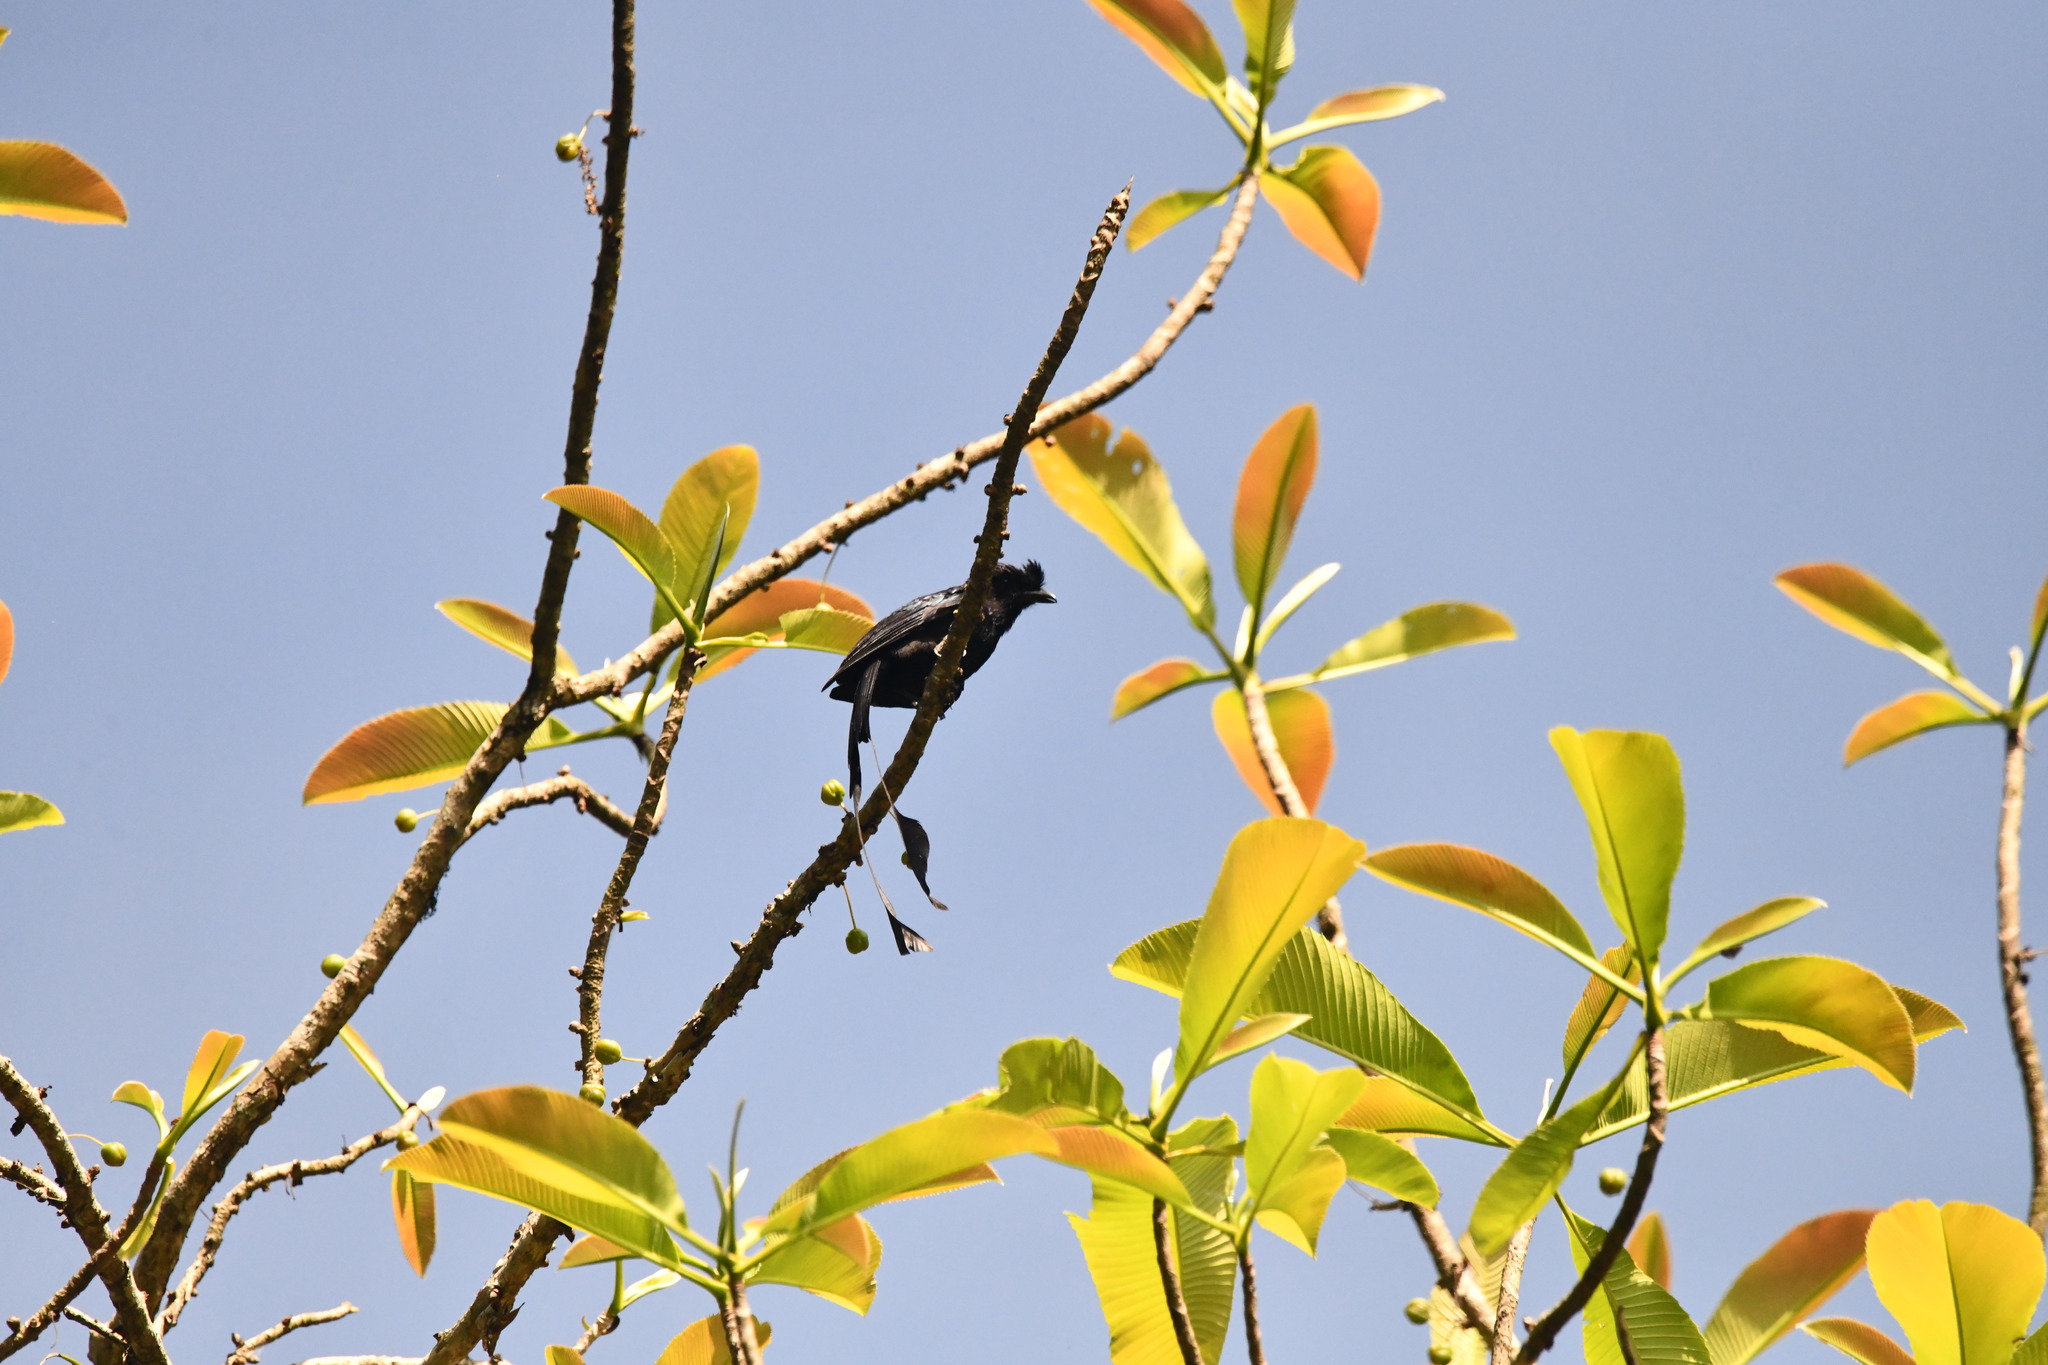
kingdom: Animalia
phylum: Chordata
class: Aves
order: Passeriformes
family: Dicruridae
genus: Dicrurus
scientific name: Dicrurus paradiseus
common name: Greater racket-tailed drongo
